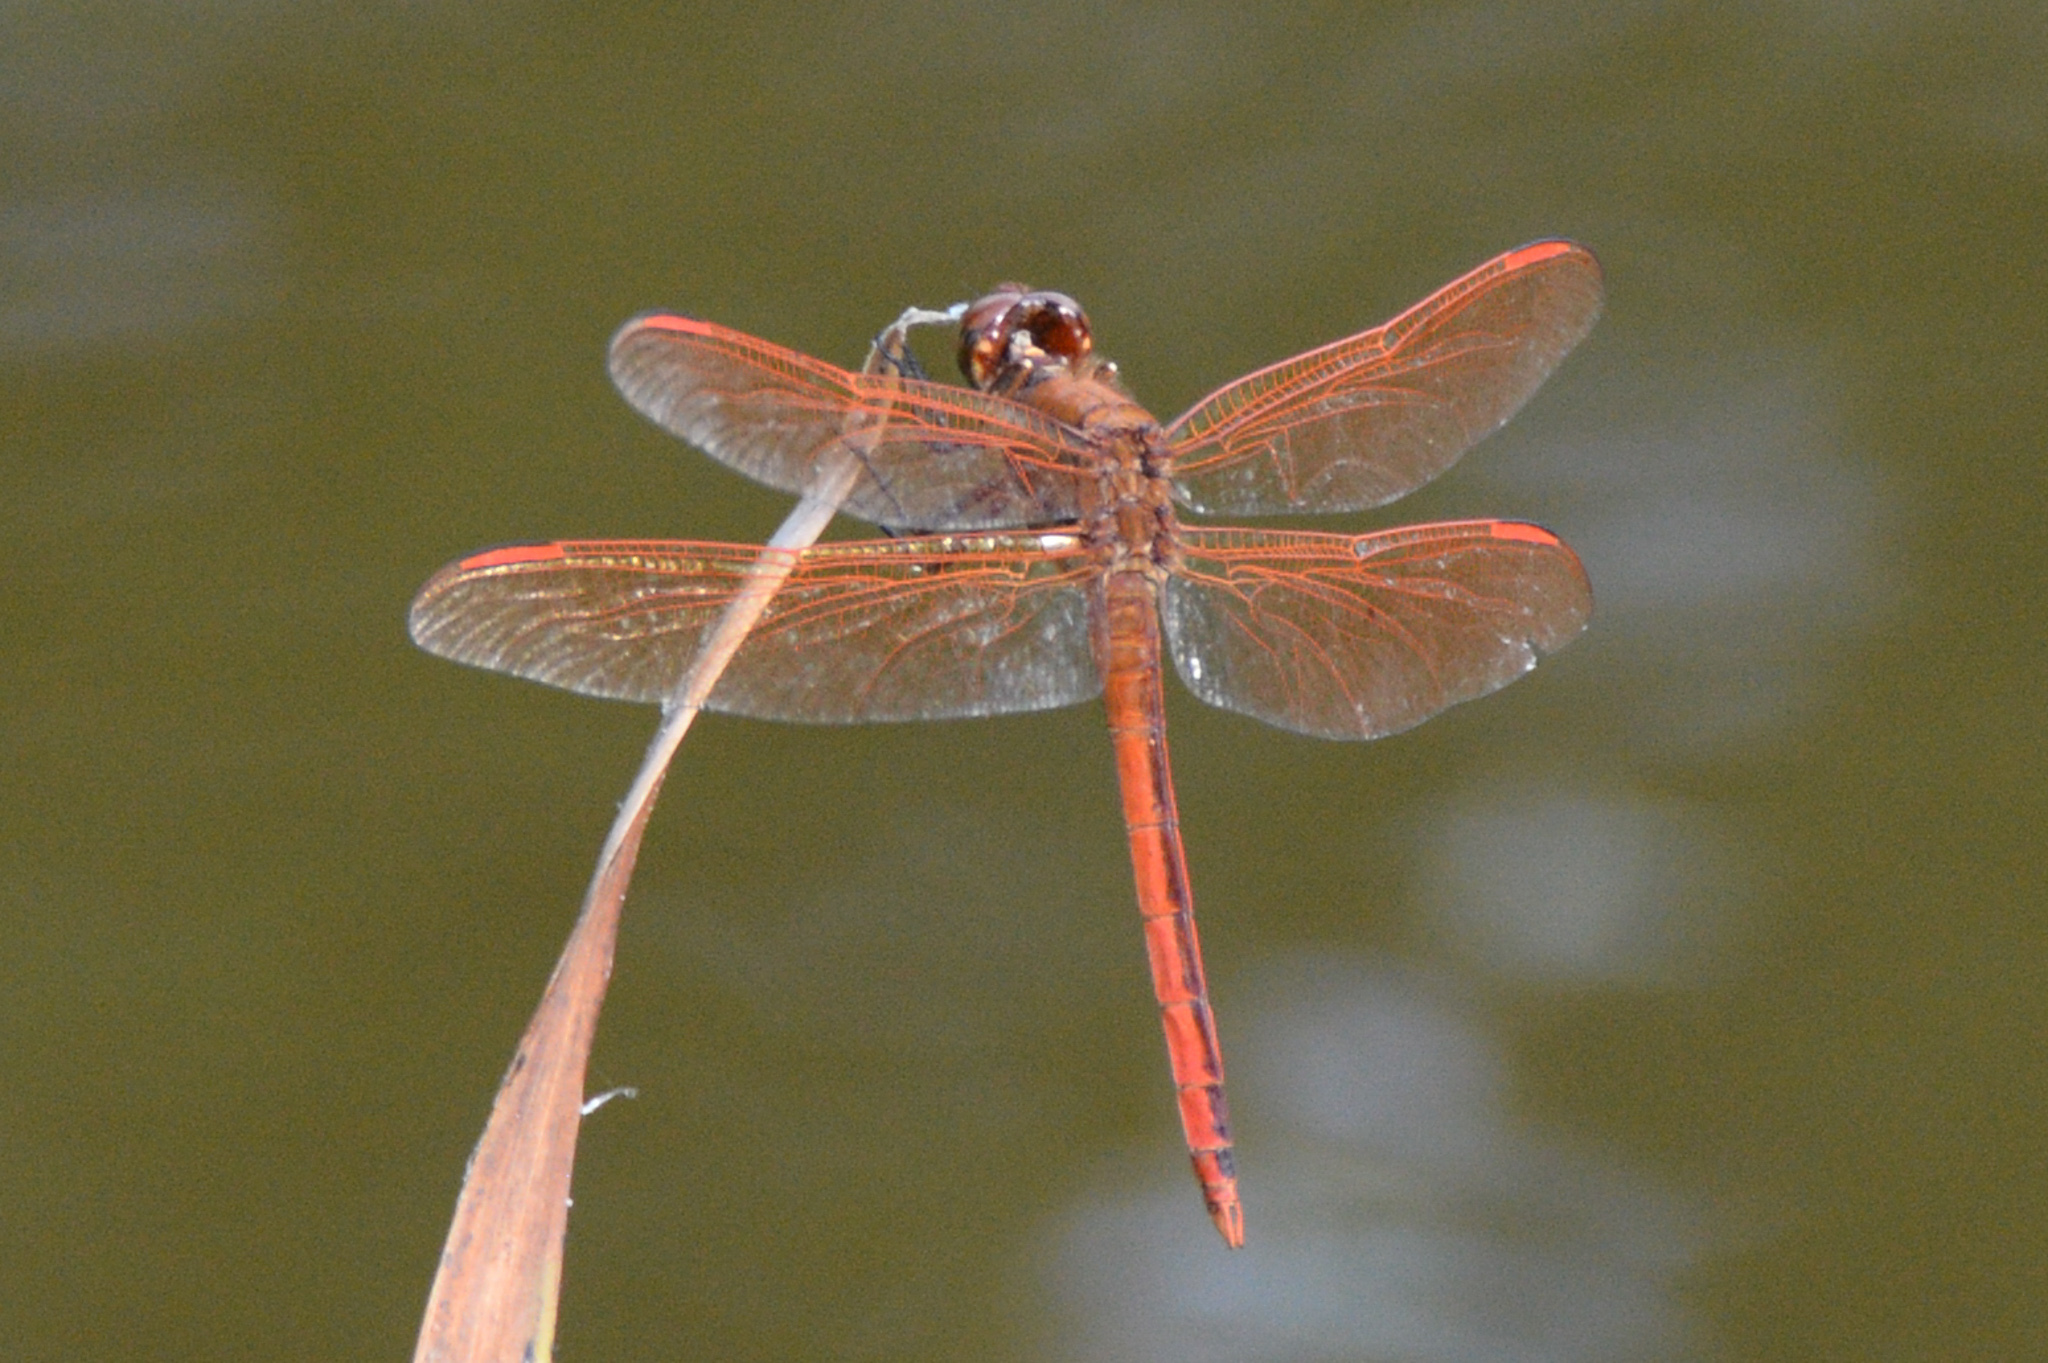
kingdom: Animalia
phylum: Arthropoda
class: Insecta
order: Odonata
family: Libellulidae
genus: Libellula
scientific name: Libellula auripennis
